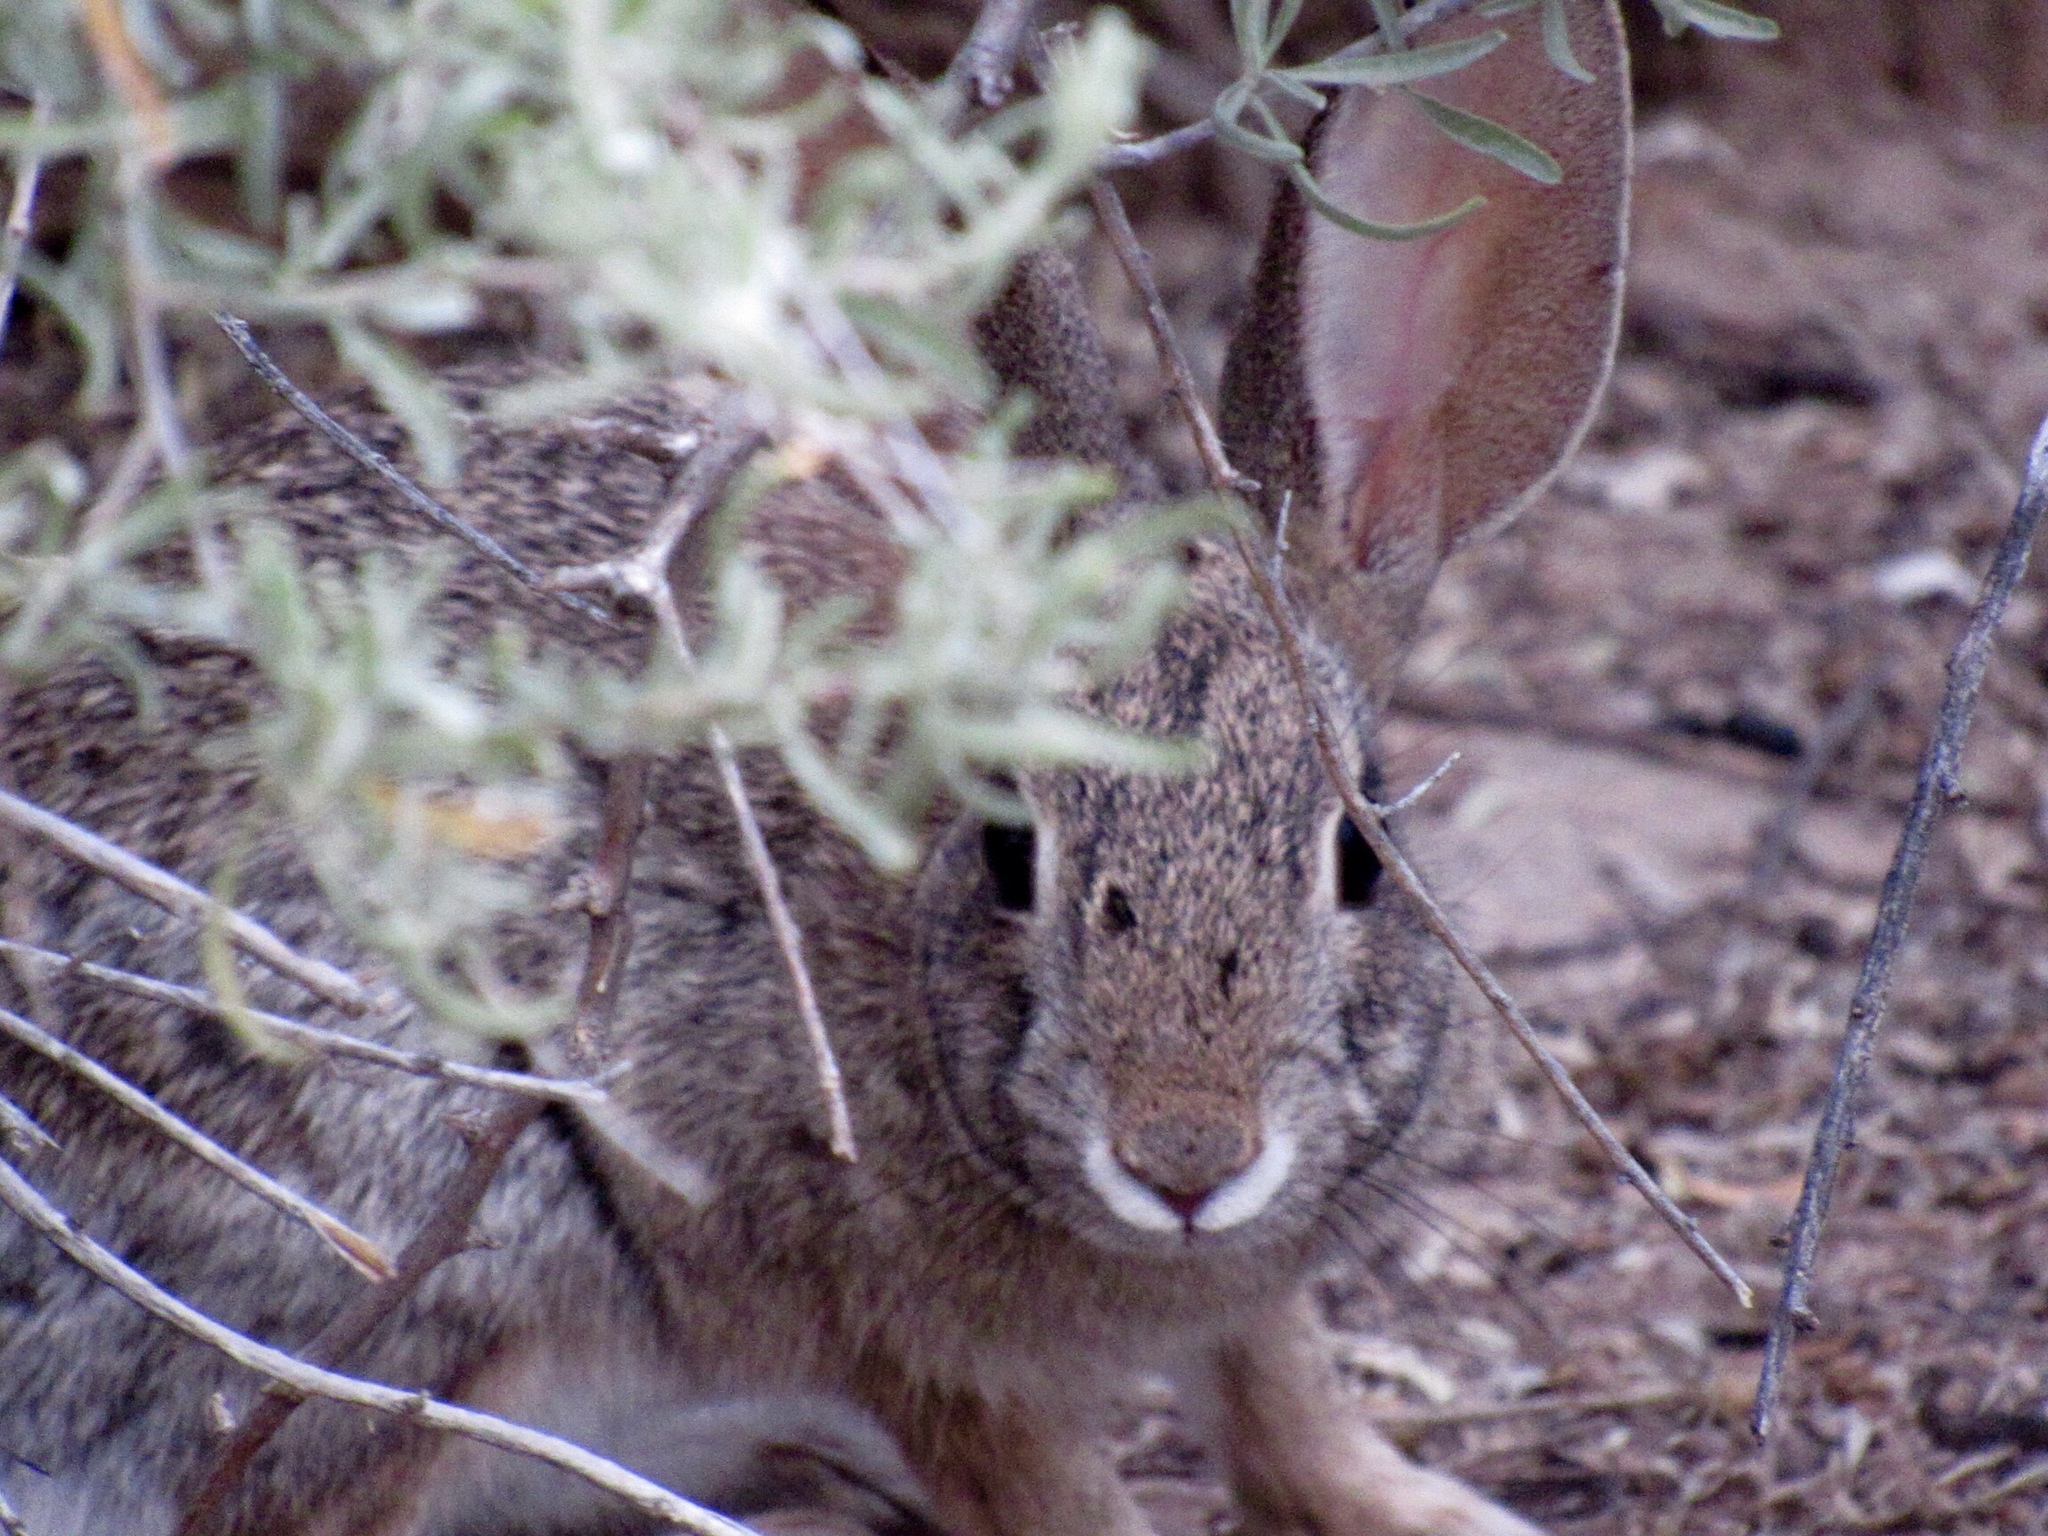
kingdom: Animalia
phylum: Chordata
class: Mammalia
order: Lagomorpha
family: Leporidae
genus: Sylvilagus
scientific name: Sylvilagus audubonii
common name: Desert cottontail
